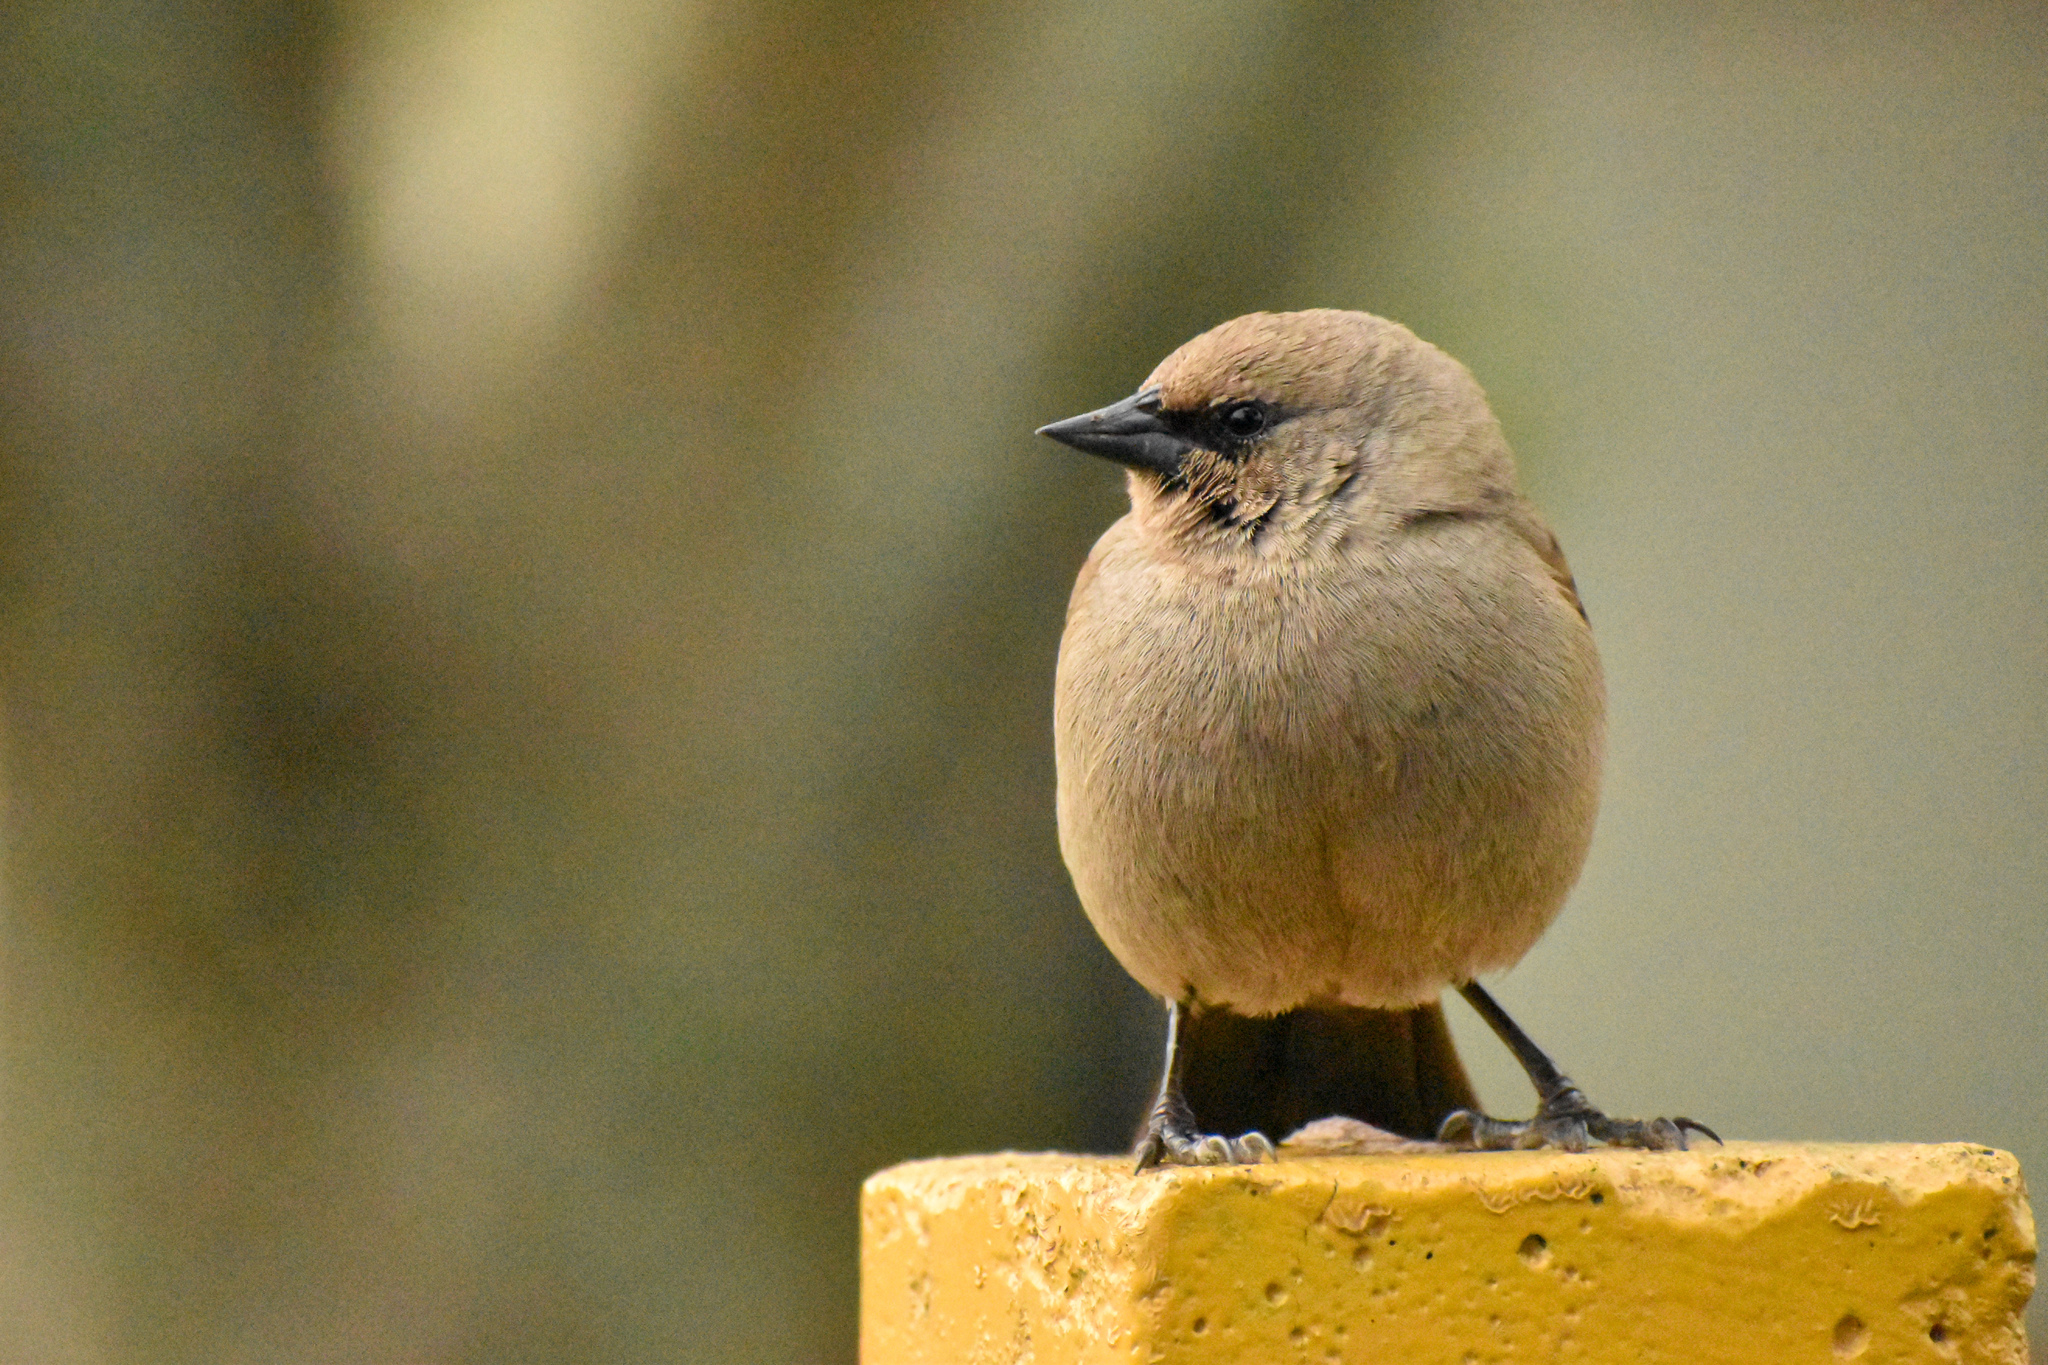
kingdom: Animalia
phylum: Chordata
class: Aves
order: Passeriformes
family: Icteridae
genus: Agelaioides
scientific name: Agelaioides badius
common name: Baywing
